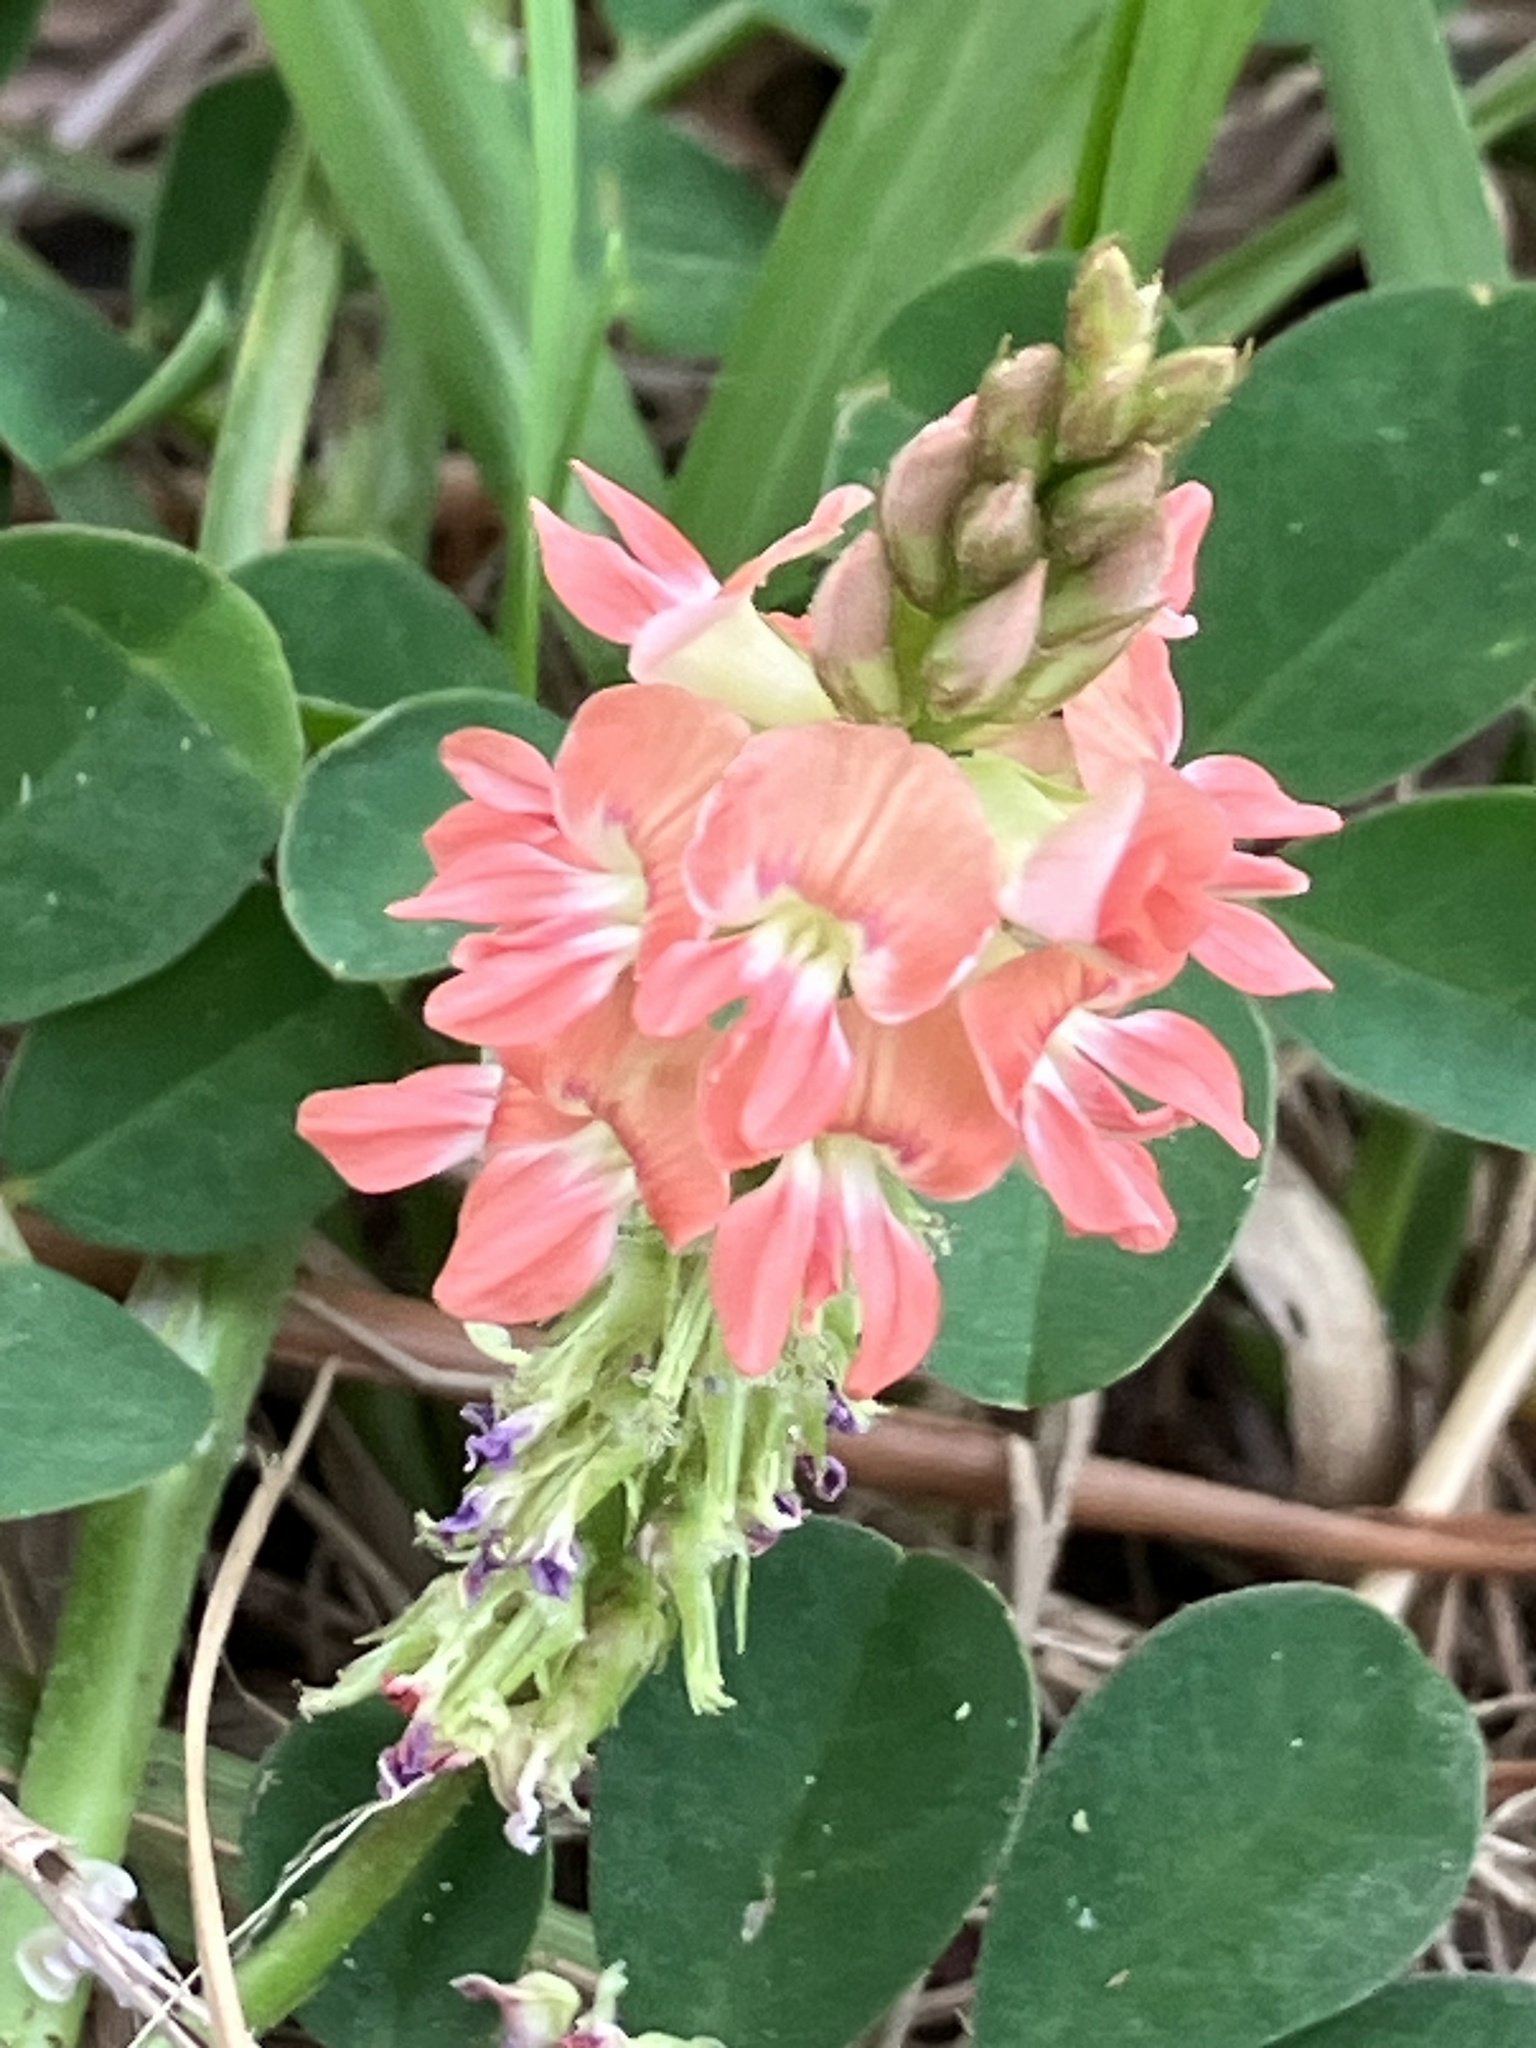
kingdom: Plantae
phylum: Tracheophyta
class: Magnoliopsida
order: Fabales
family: Fabaceae
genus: Indigofera
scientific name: Indigofera spicata
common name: Creeping indigo
